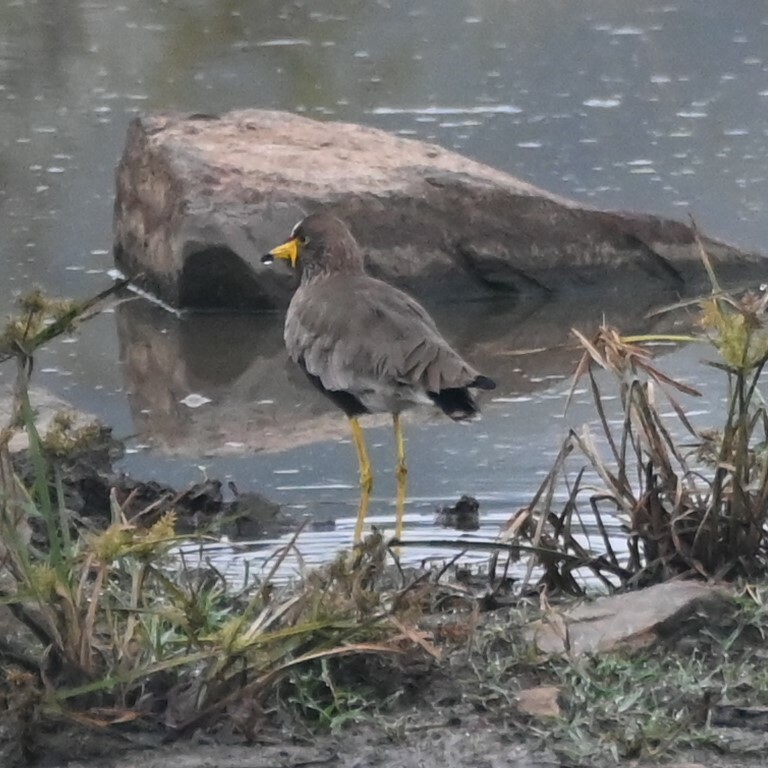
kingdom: Animalia
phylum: Chordata
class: Aves
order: Charadriiformes
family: Charadriidae
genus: Vanellus
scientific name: Vanellus senegallus
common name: African wattled lapwing
